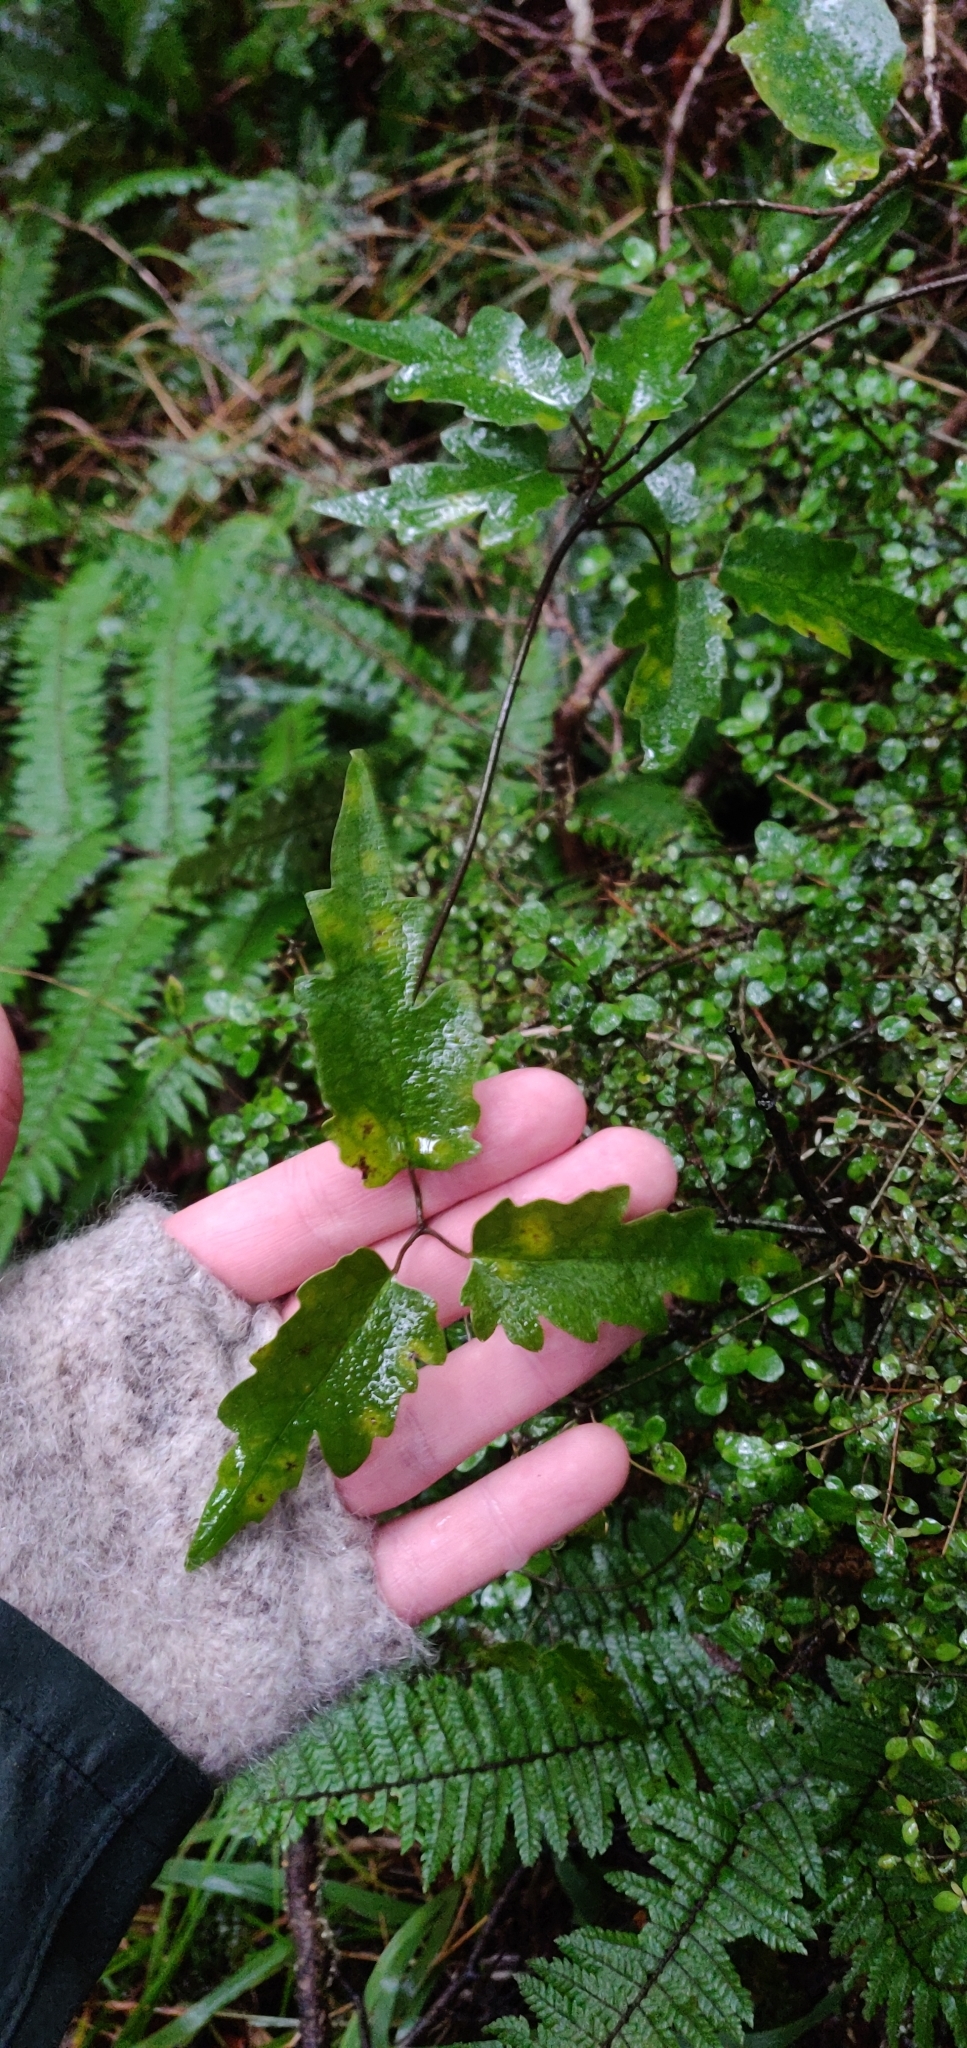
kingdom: Plantae
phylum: Tracheophyta
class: Magnoliopsida
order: Ranunculales
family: Ranunculaceae
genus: Clematis
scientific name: Clematis paniculata
